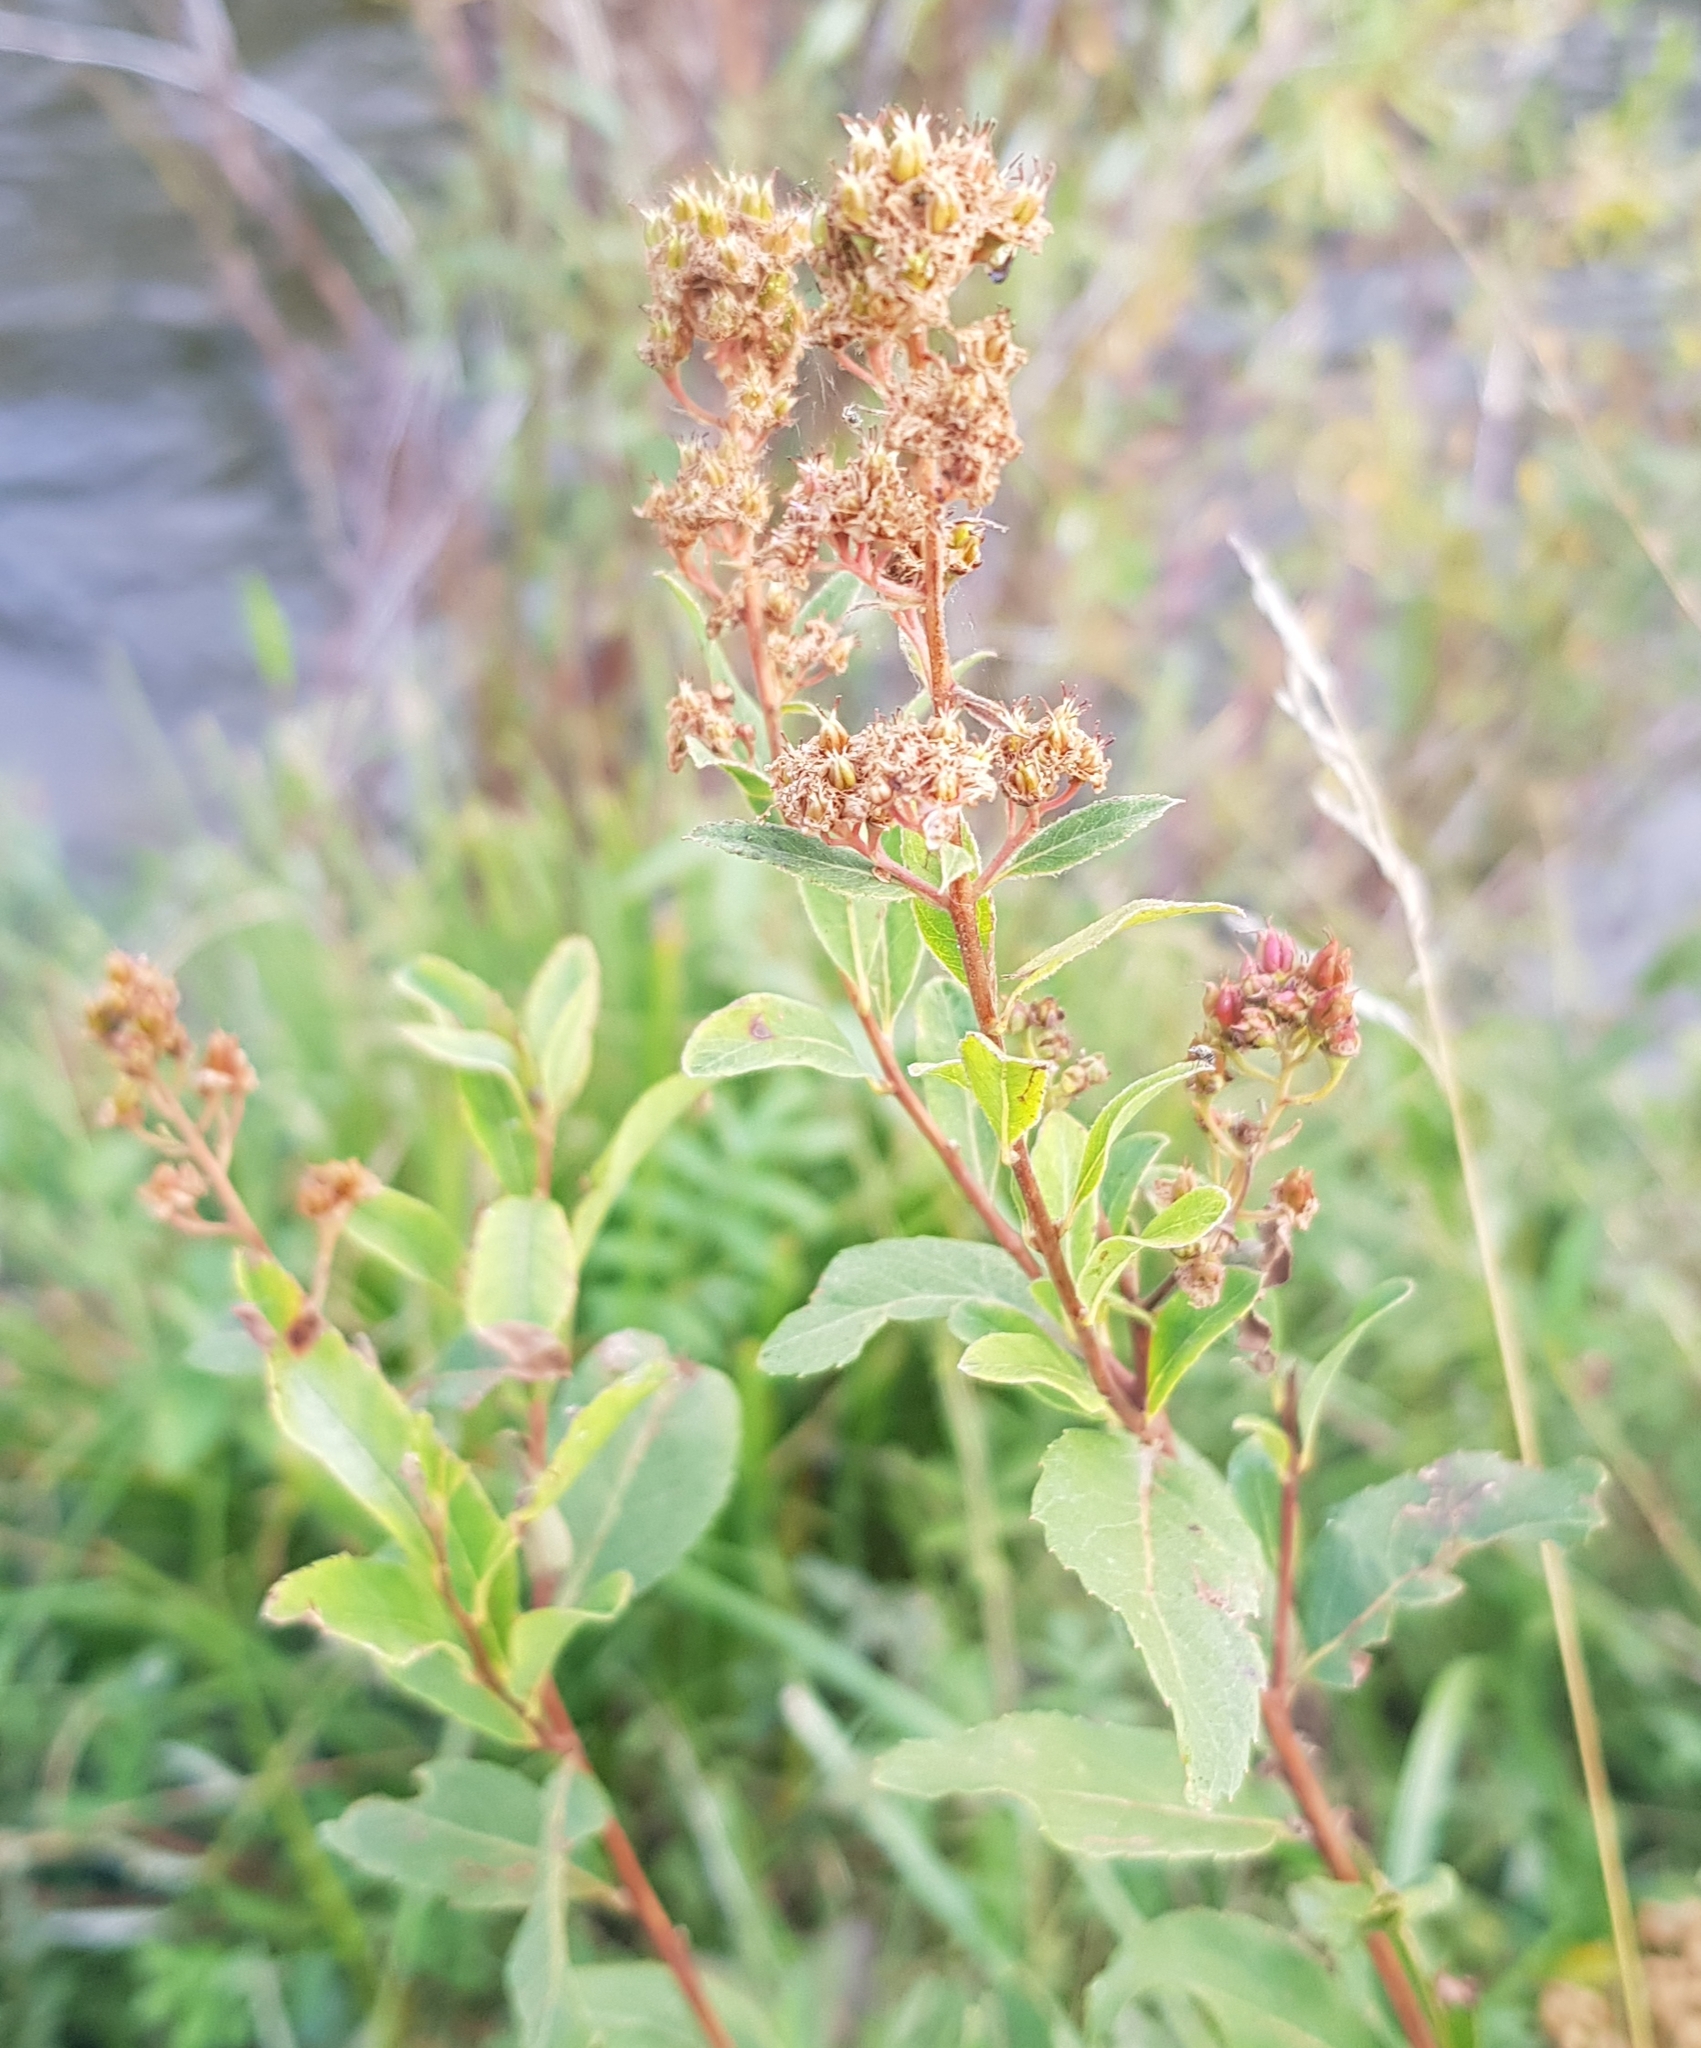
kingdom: Plantae
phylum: Tracheophyta
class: Magnoliopsida
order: Rosales
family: Rosaceae
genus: Spiraea
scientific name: Spiraea salicifolia
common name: Bridewort
